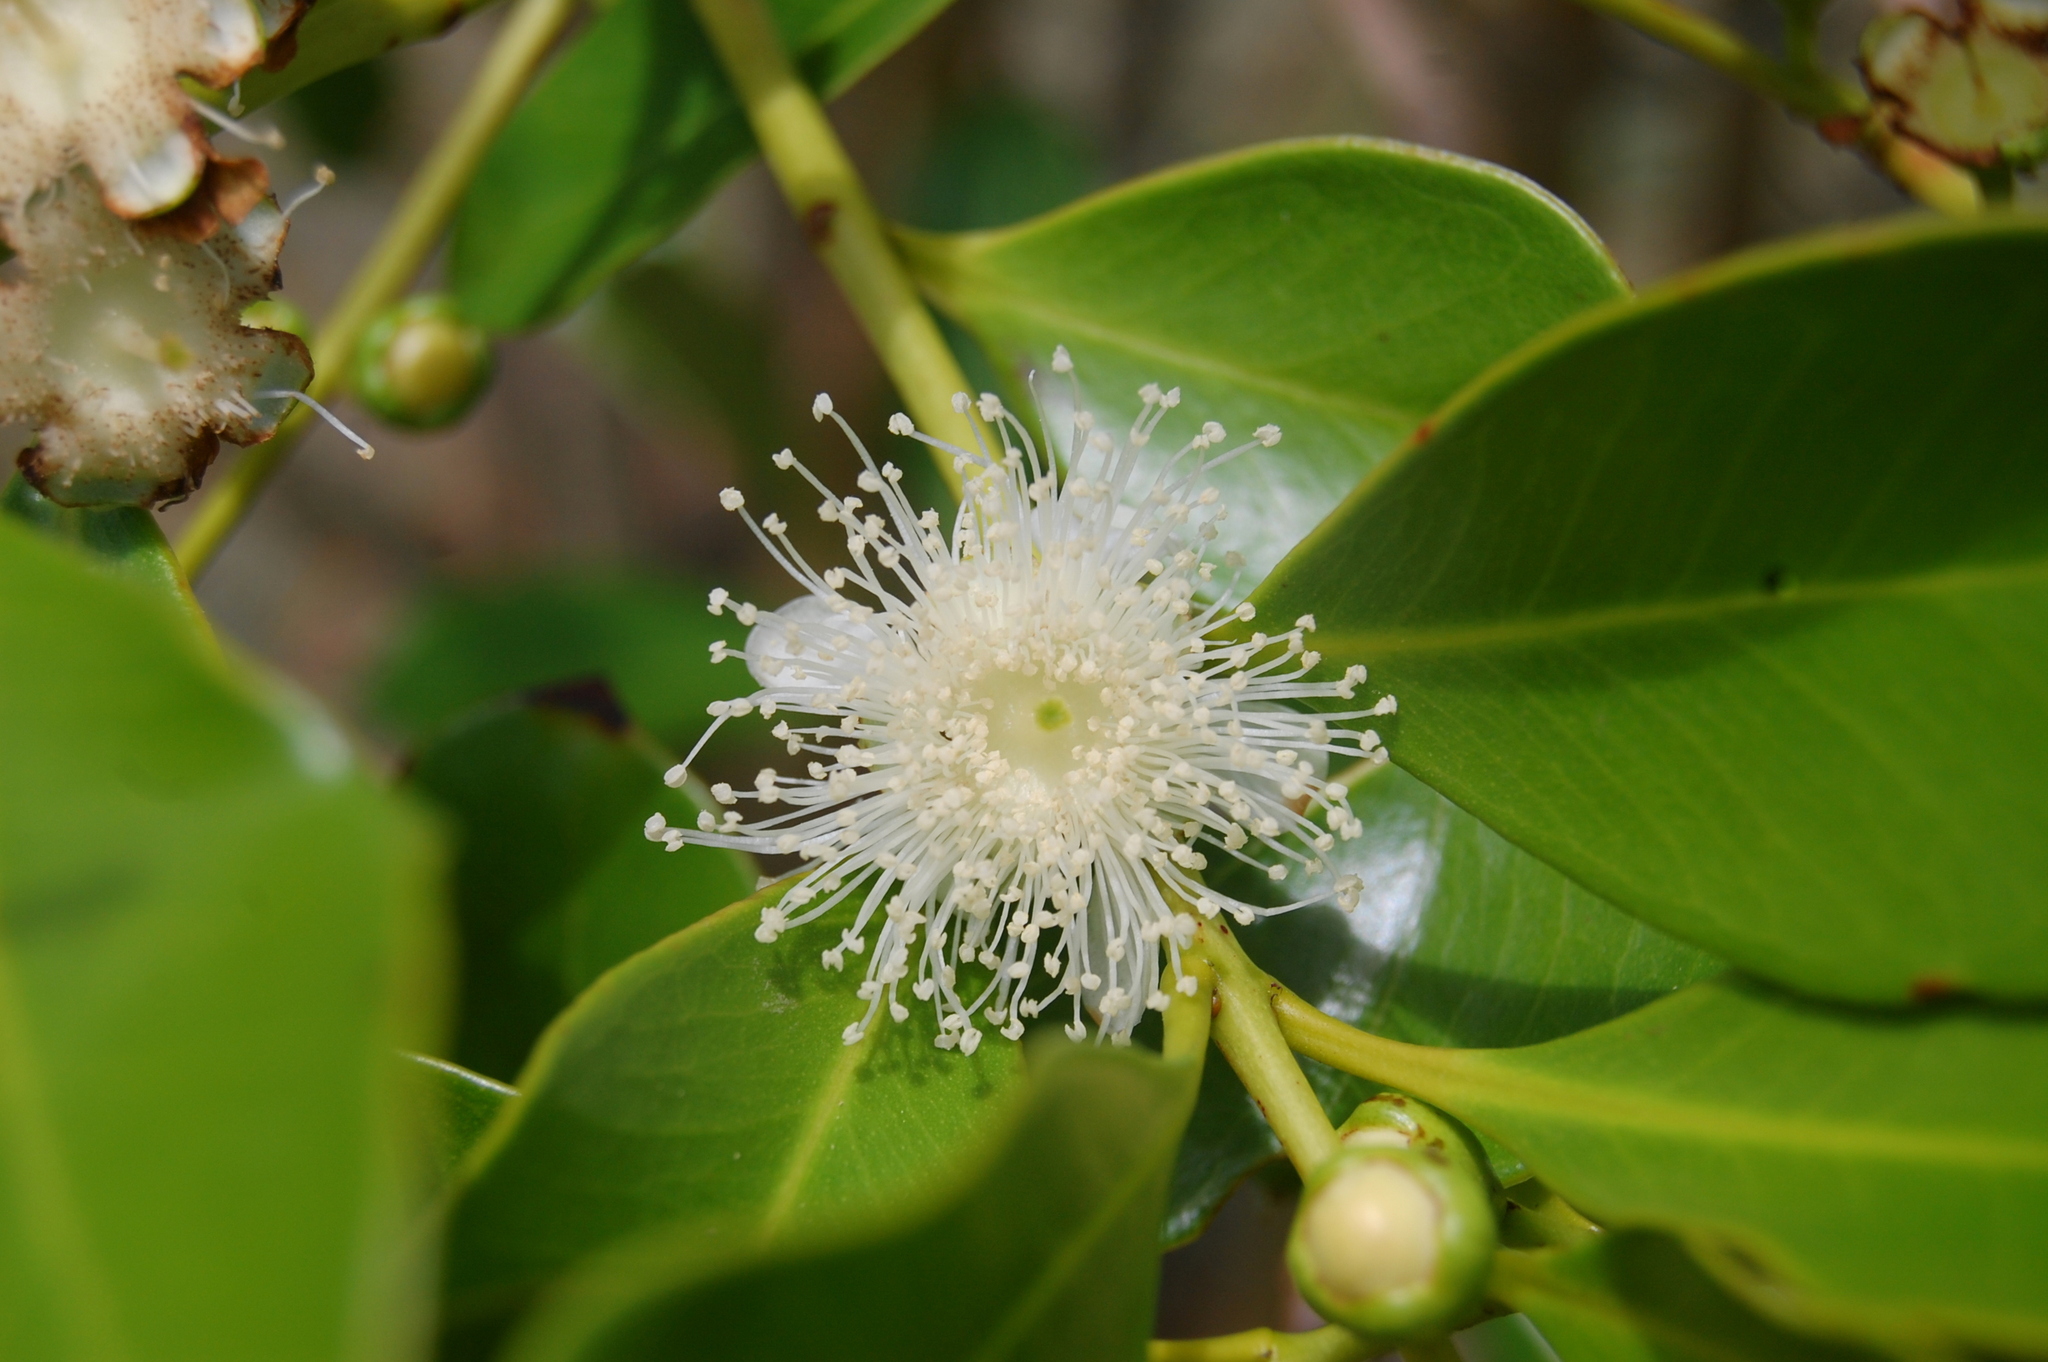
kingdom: Plantae
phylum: Tracheophyta
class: Magnoliopsida
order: Myrtales
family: Myrtaceae
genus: Psidium
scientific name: Psidium cattleianum
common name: Strawberry guava
